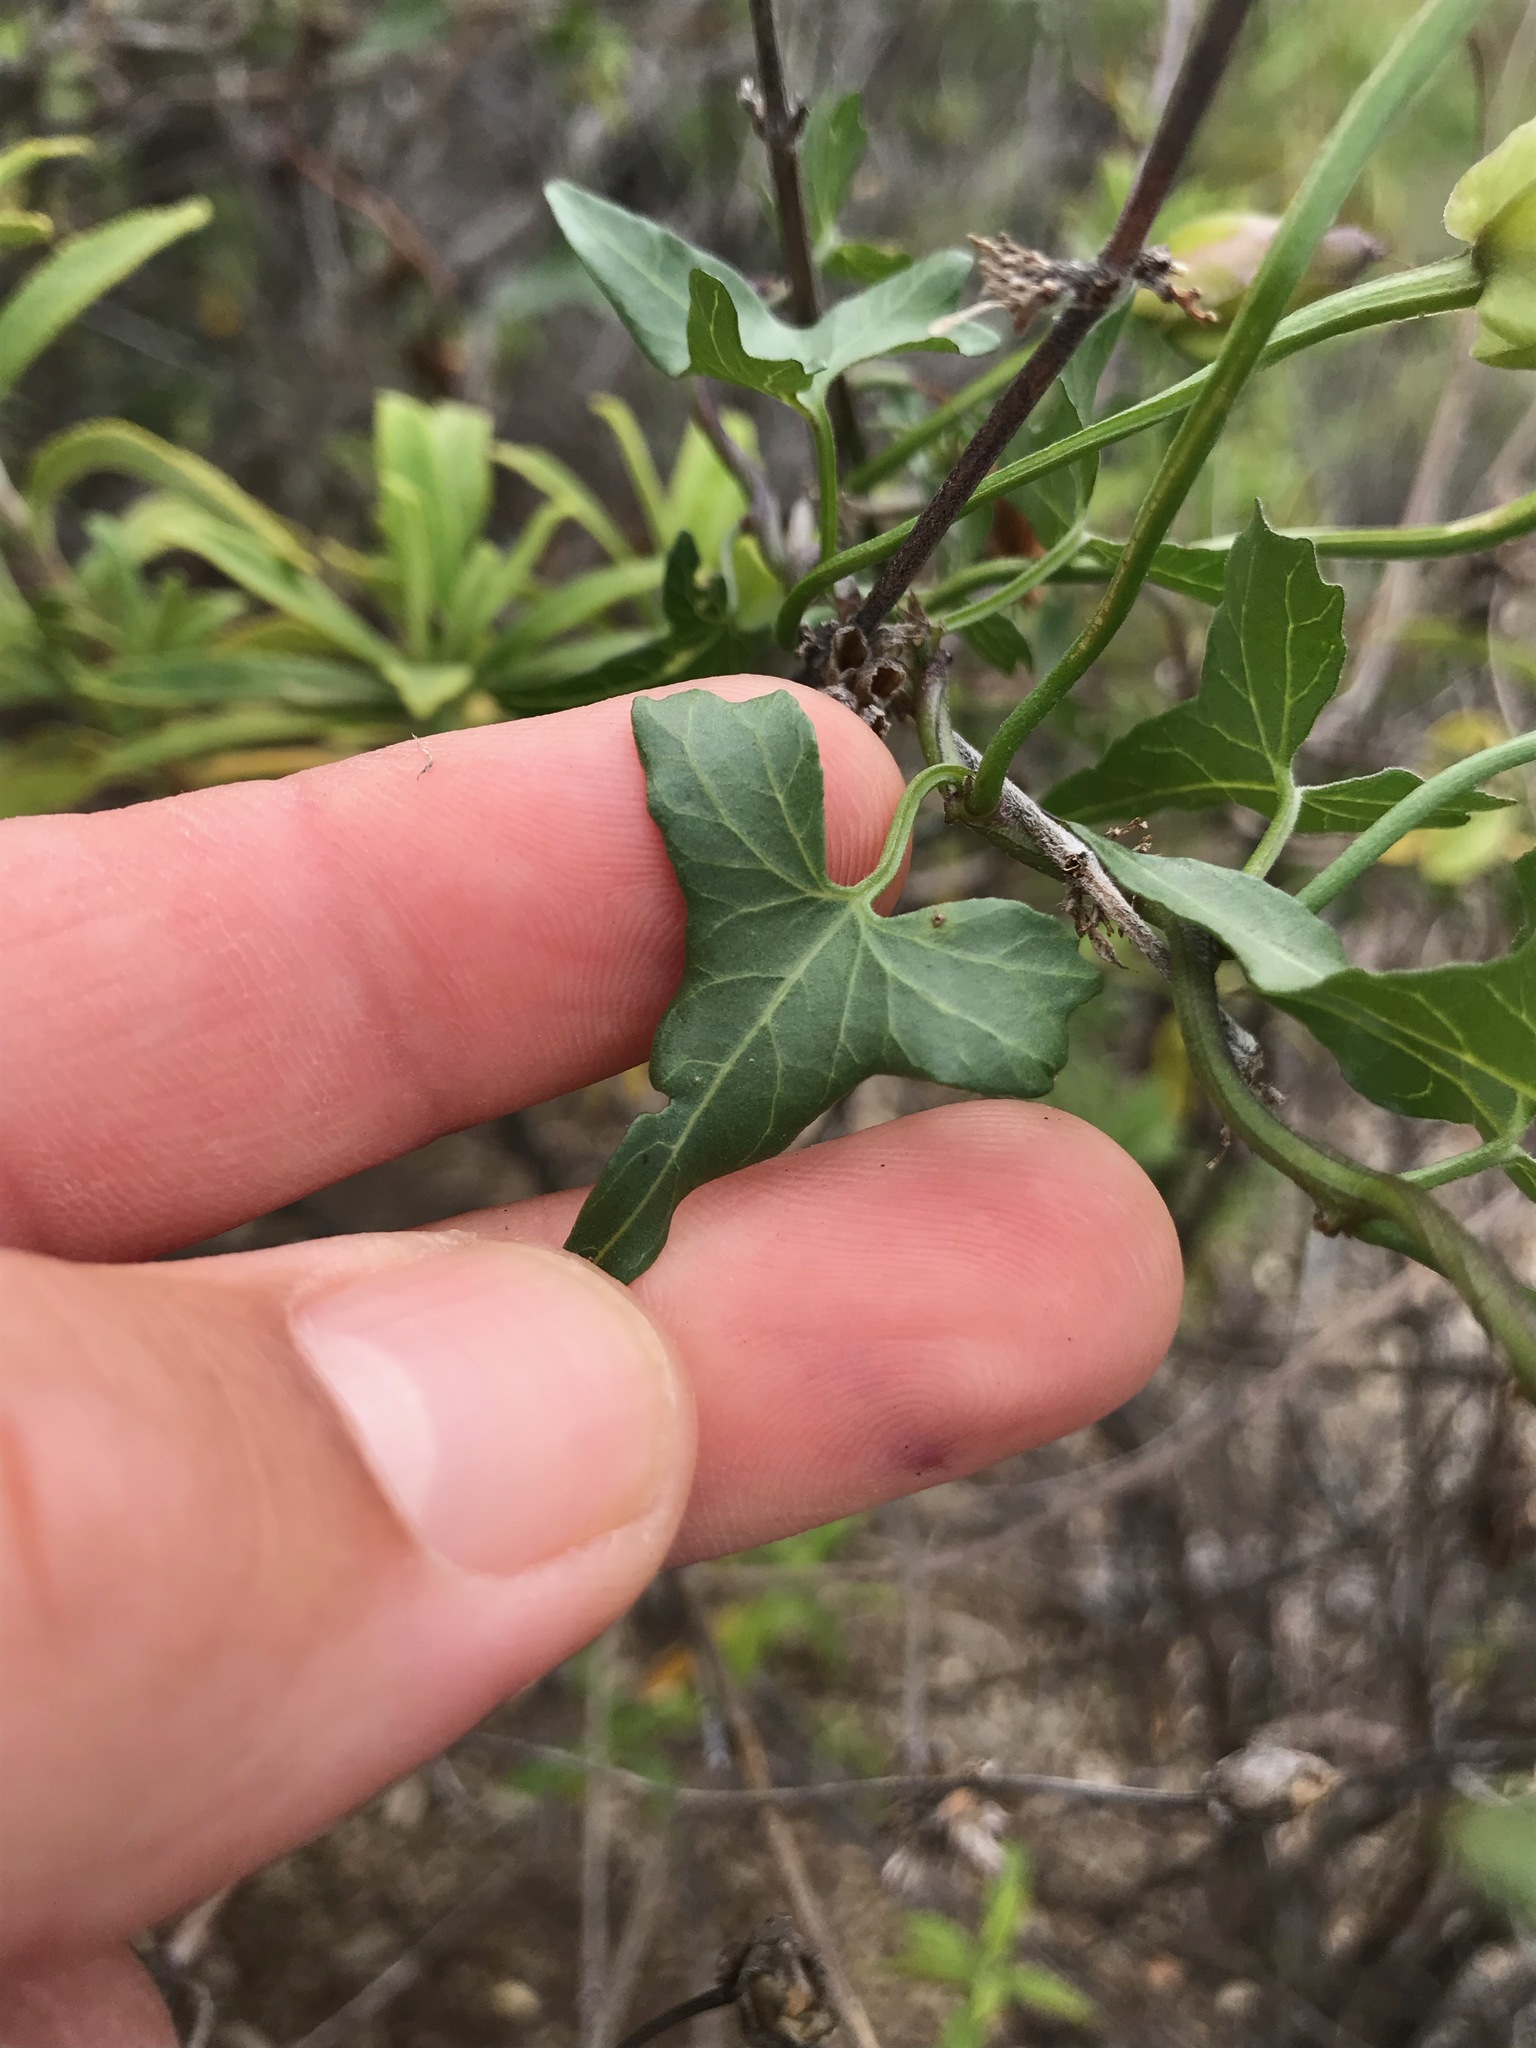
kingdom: Plantae
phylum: Tracheophyta
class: Magnoliopsida
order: Solanales
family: Convolvulaceae
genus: Calystegia
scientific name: Calystegia macrostegia
